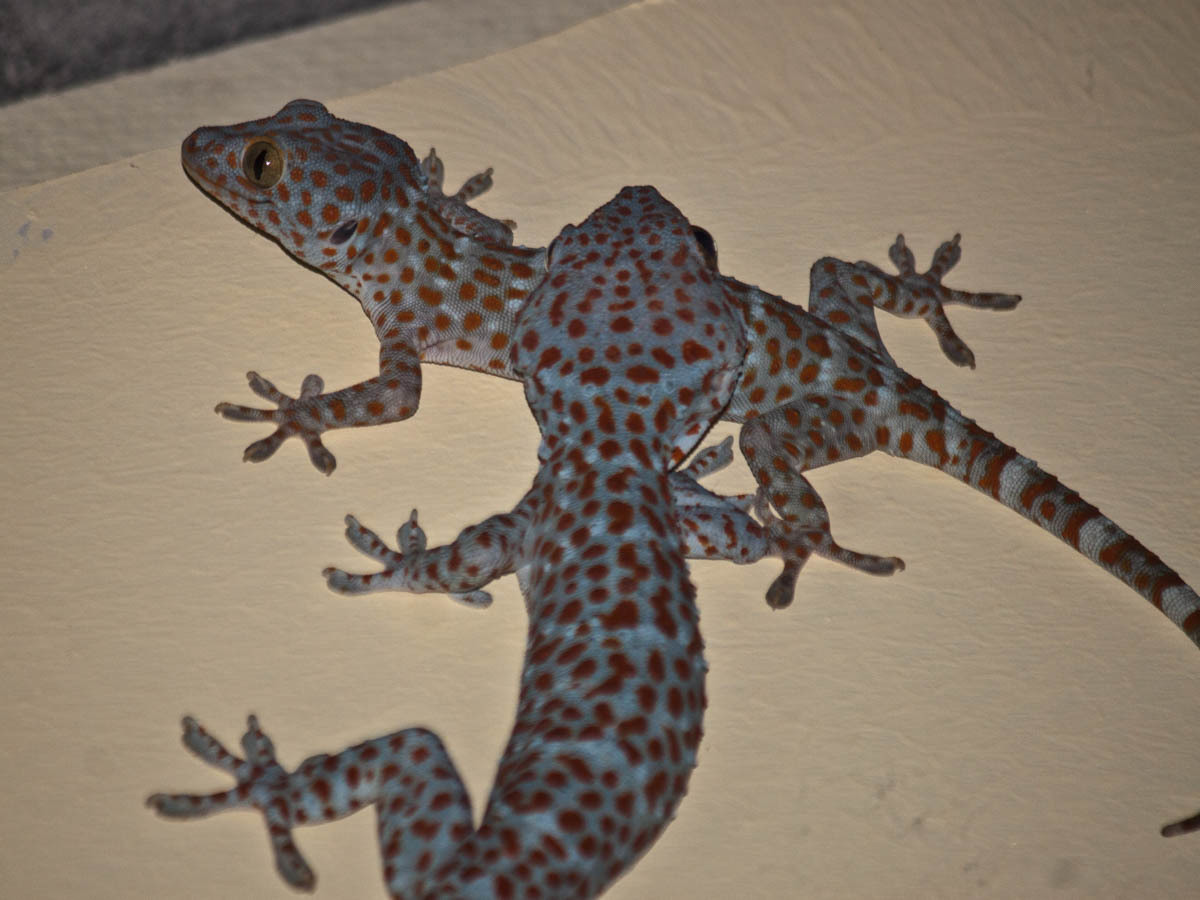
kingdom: Animalia
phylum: Chordata
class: Squamata
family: Gekkonidae
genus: Gekko
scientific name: Gekko gecko
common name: Tokay gecko
